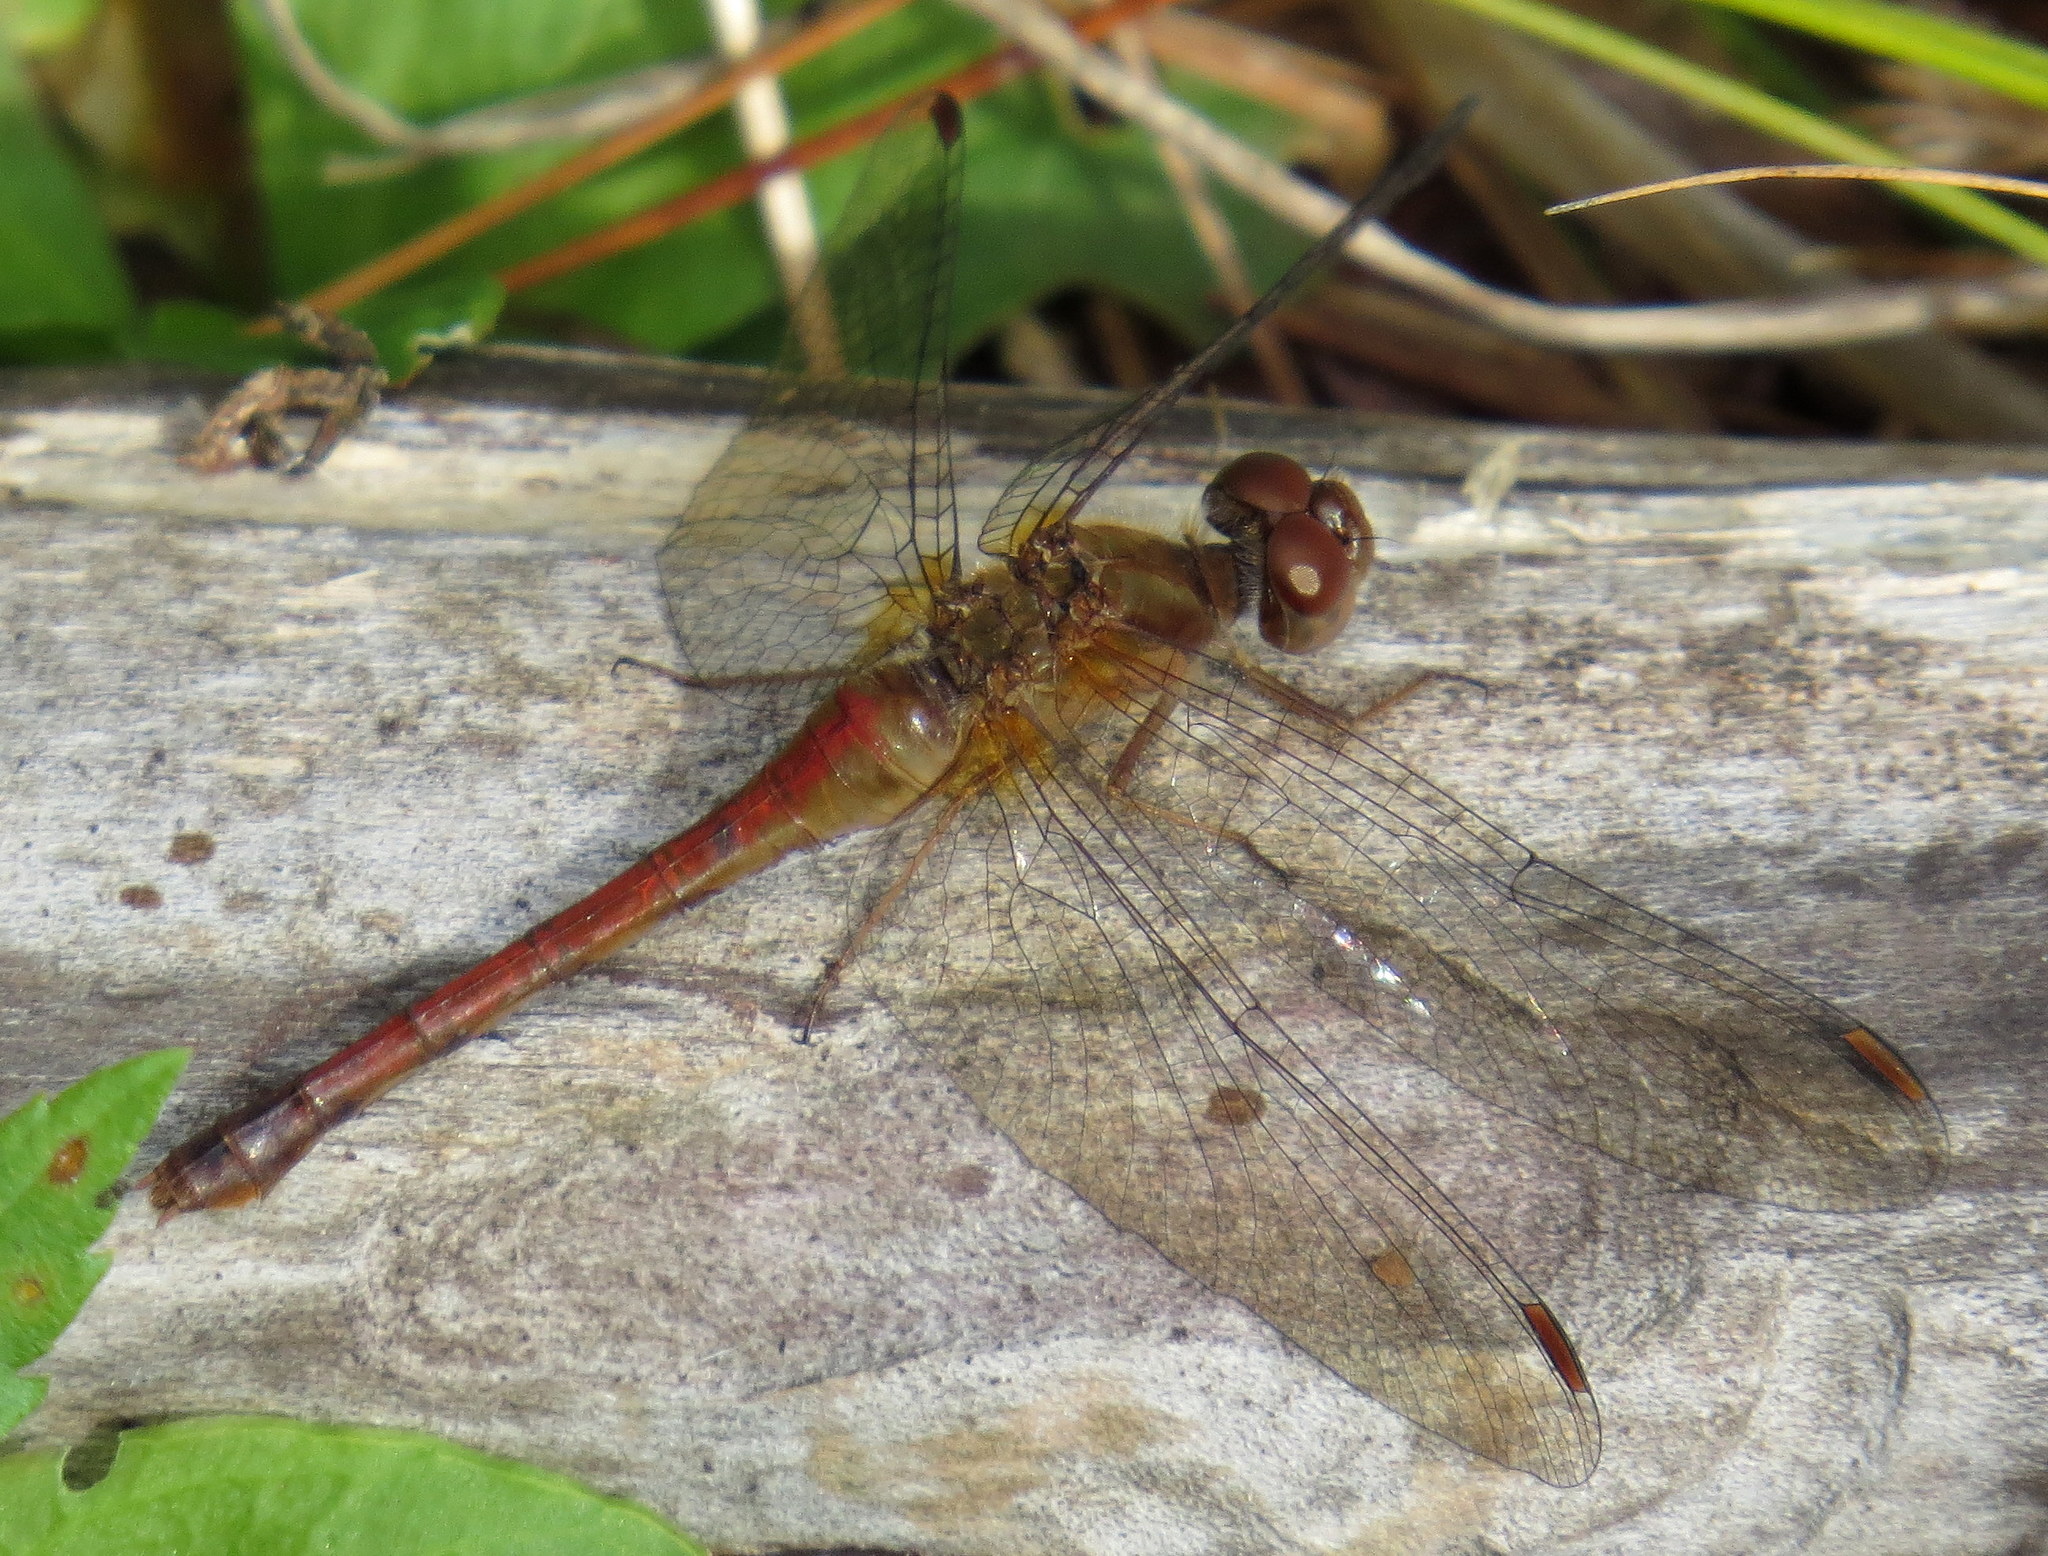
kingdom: Animalia
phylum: Arthropoda
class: Insecta
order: Odonata
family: Libellulidae
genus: Sympetrum
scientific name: Sympetrum vicinum
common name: Autumn meadowhawk
